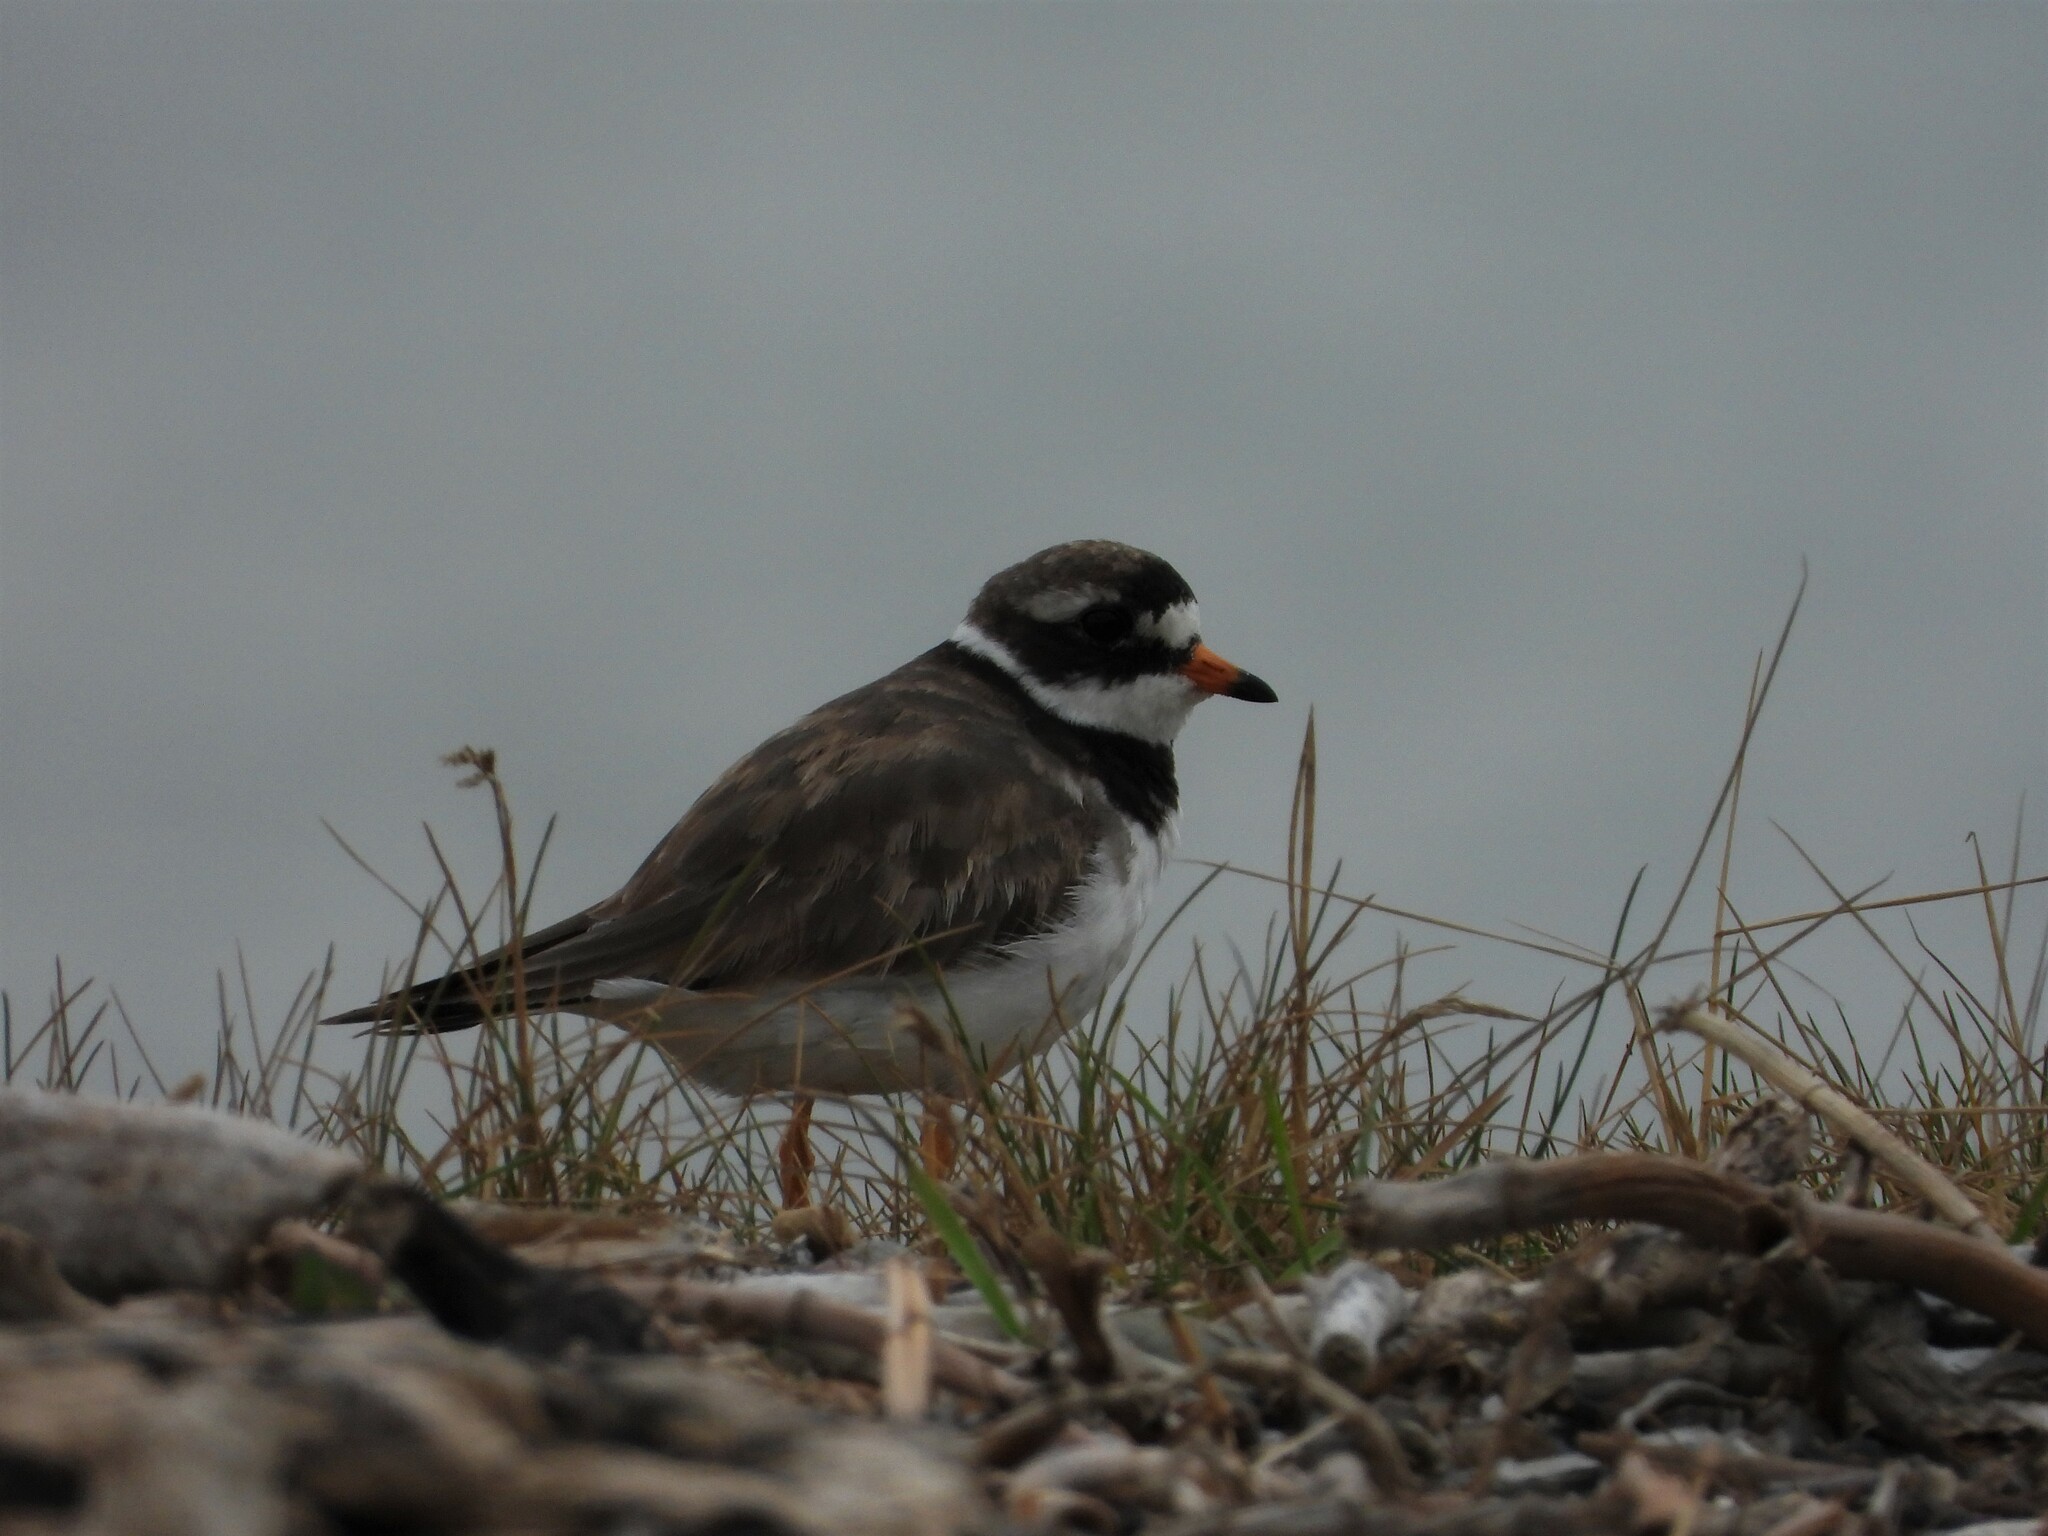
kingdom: Animalia
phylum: Chordata
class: Aves
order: Charadriiformes
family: Charadriidae
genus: Charadrius
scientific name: Charadrius hiaticula
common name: Common ringed plover
